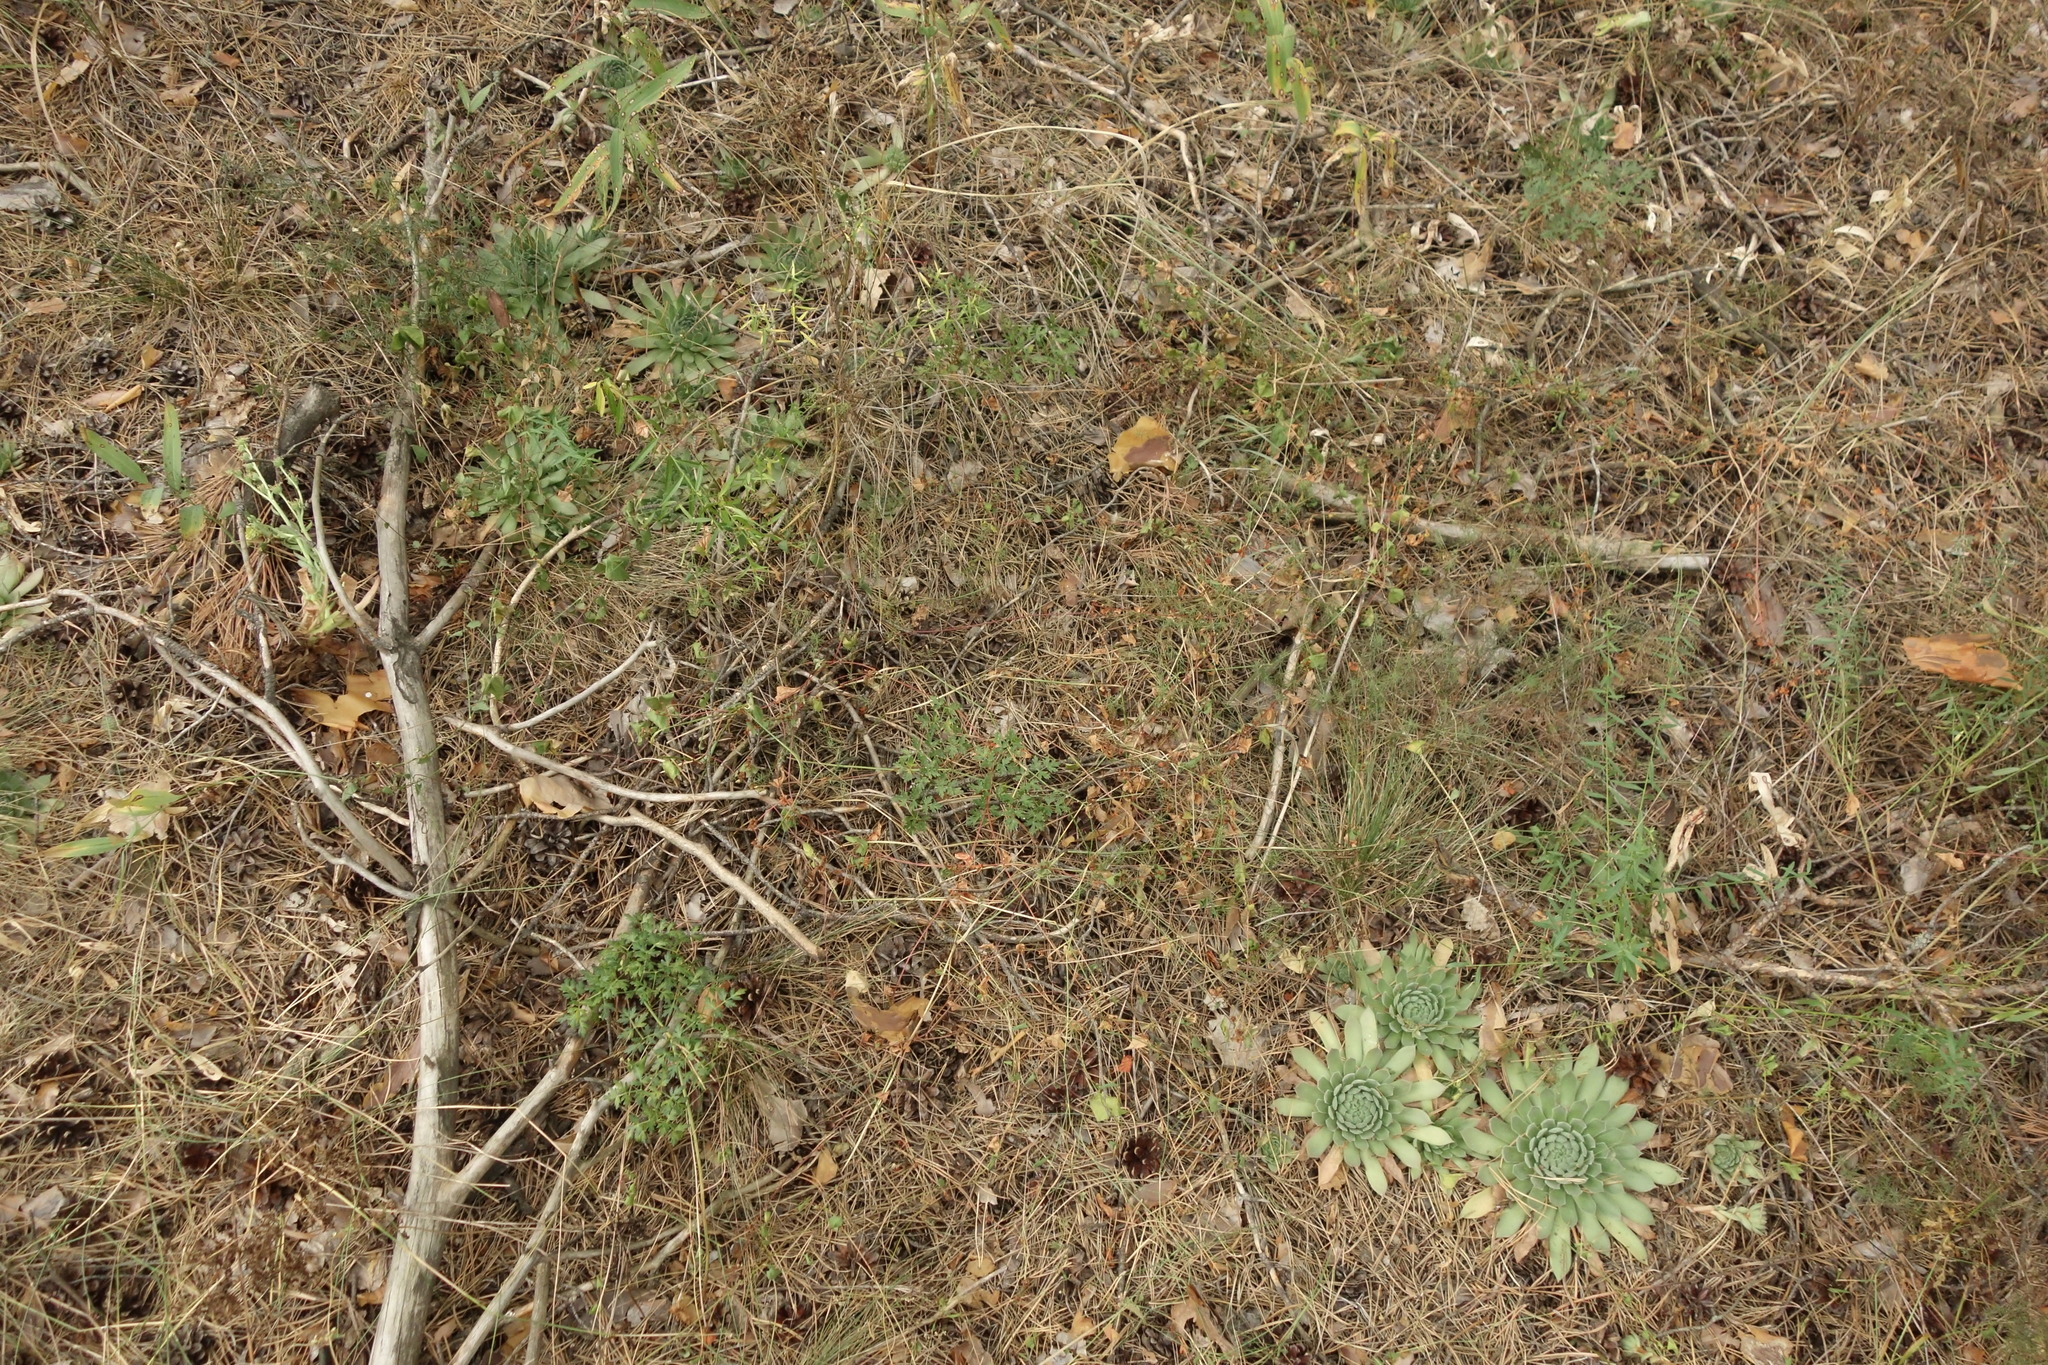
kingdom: Plantae
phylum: Tracheophyta
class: Magnoliopsida
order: Saxifragales
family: Crassulaceae
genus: Sempervivum
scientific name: Sempervivum ruthenicum
